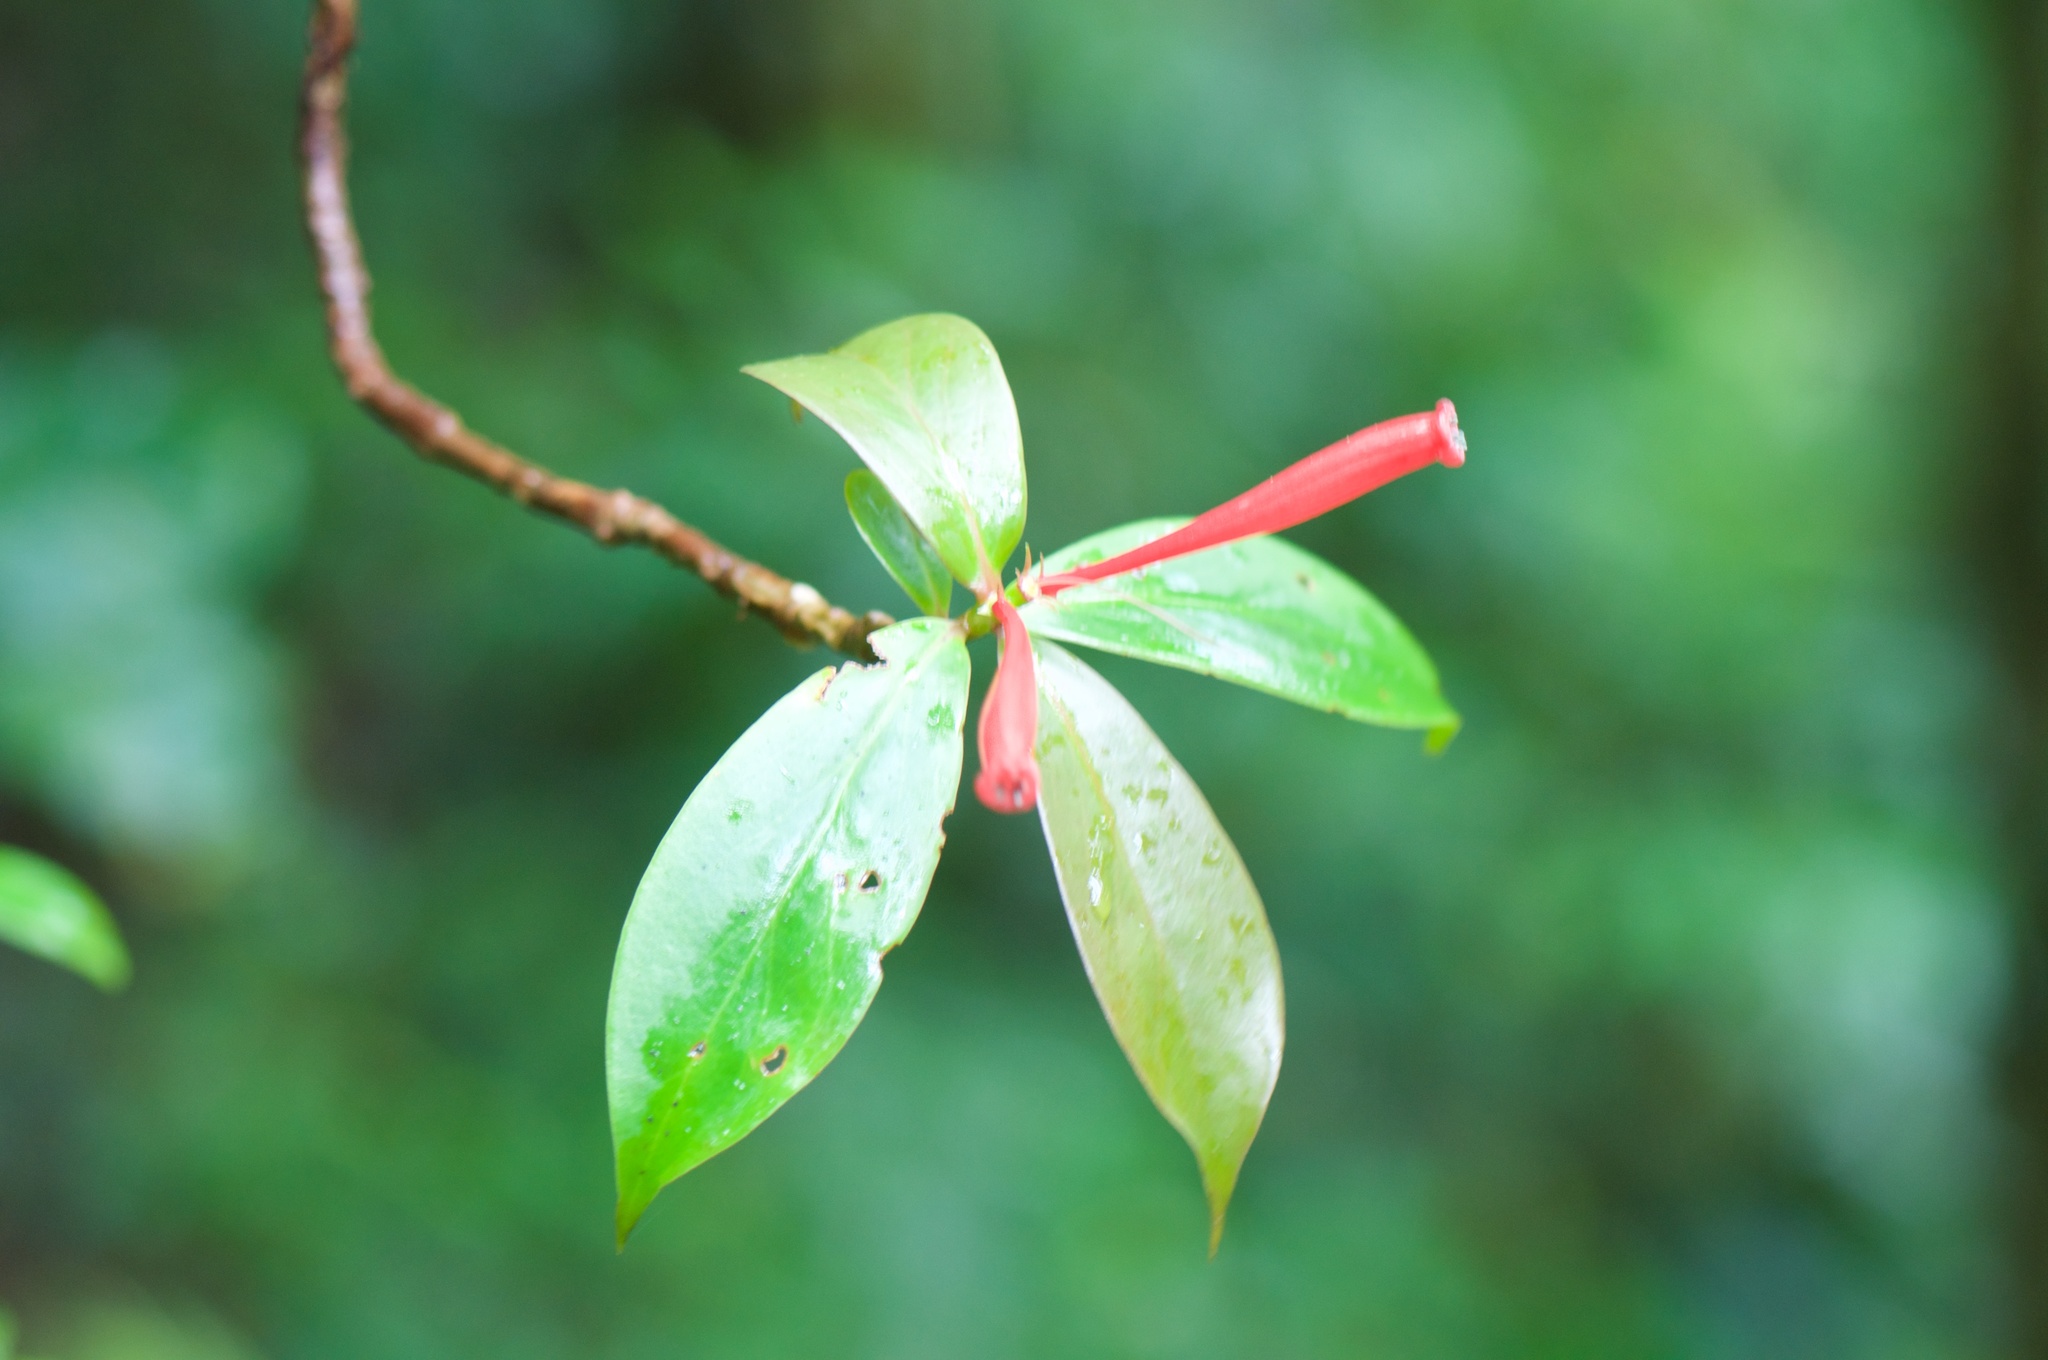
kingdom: Plantae
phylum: Tracheophyta
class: Magnoliopsida
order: Gentianales
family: Rubiaceae
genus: Hillia
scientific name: Hillia triflora
